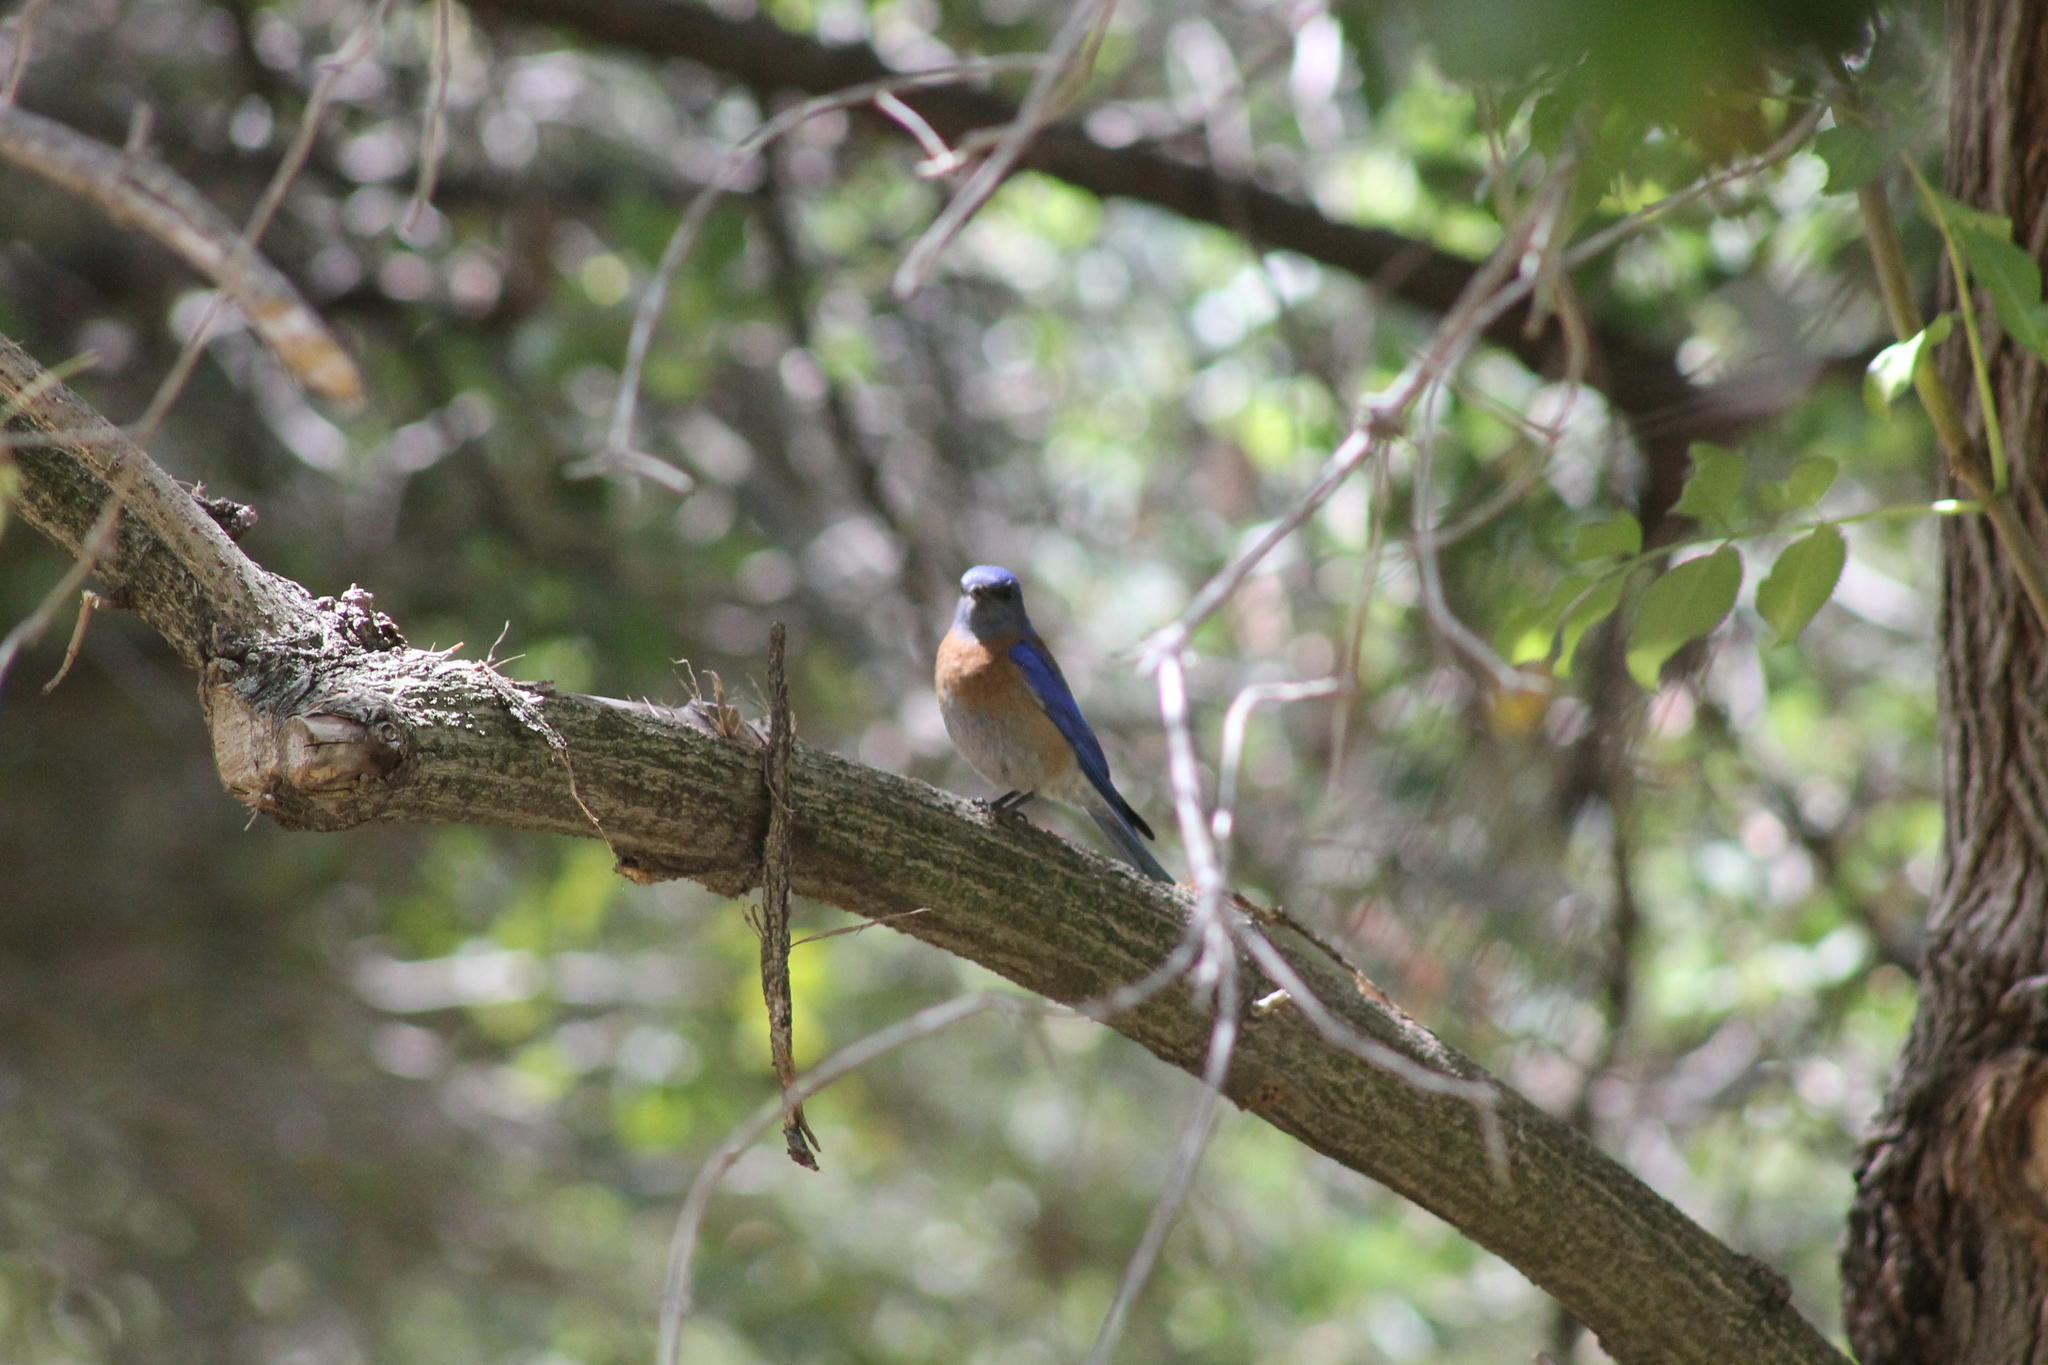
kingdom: Animalia
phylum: Chordata
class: Aves
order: Passeriformes
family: Turdidae
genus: Sialia
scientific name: Sialia mexicana
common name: Western bluebird
